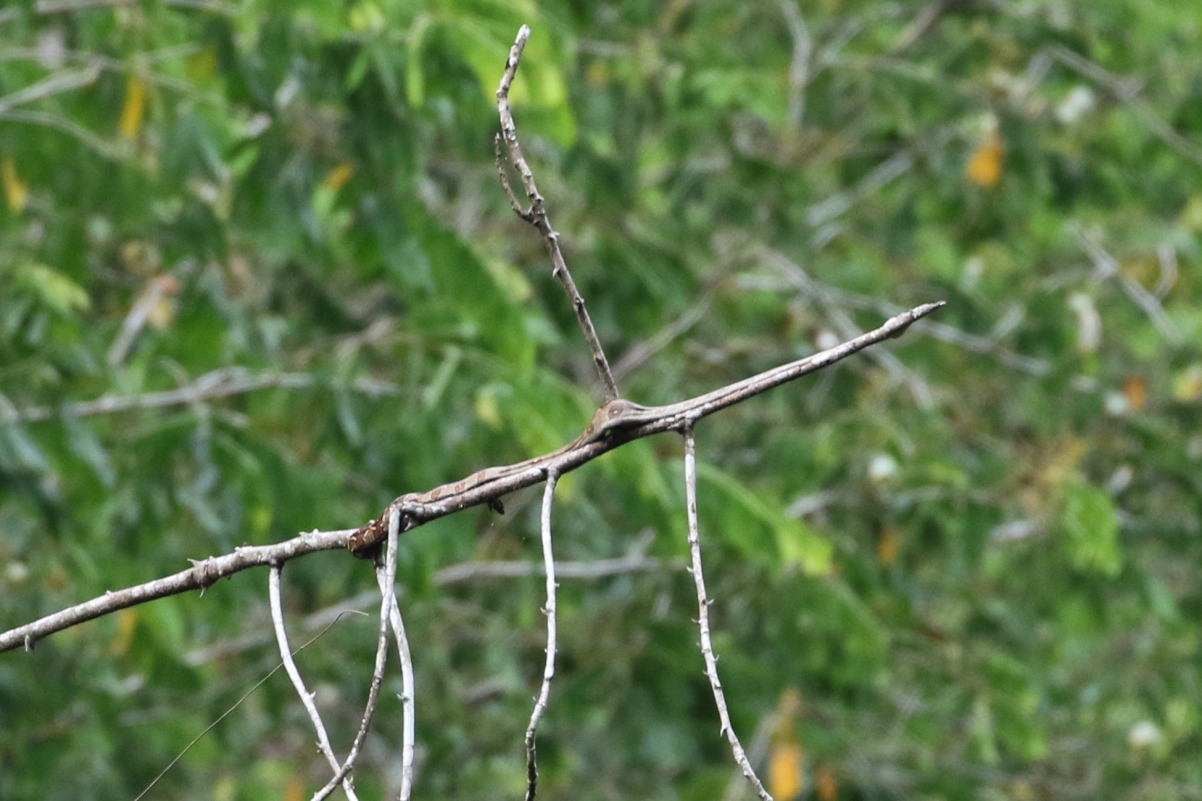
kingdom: Animalia
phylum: Chordata
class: Squamata
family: Boidae
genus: Boa
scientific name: Boa imperator
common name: Central american boa
